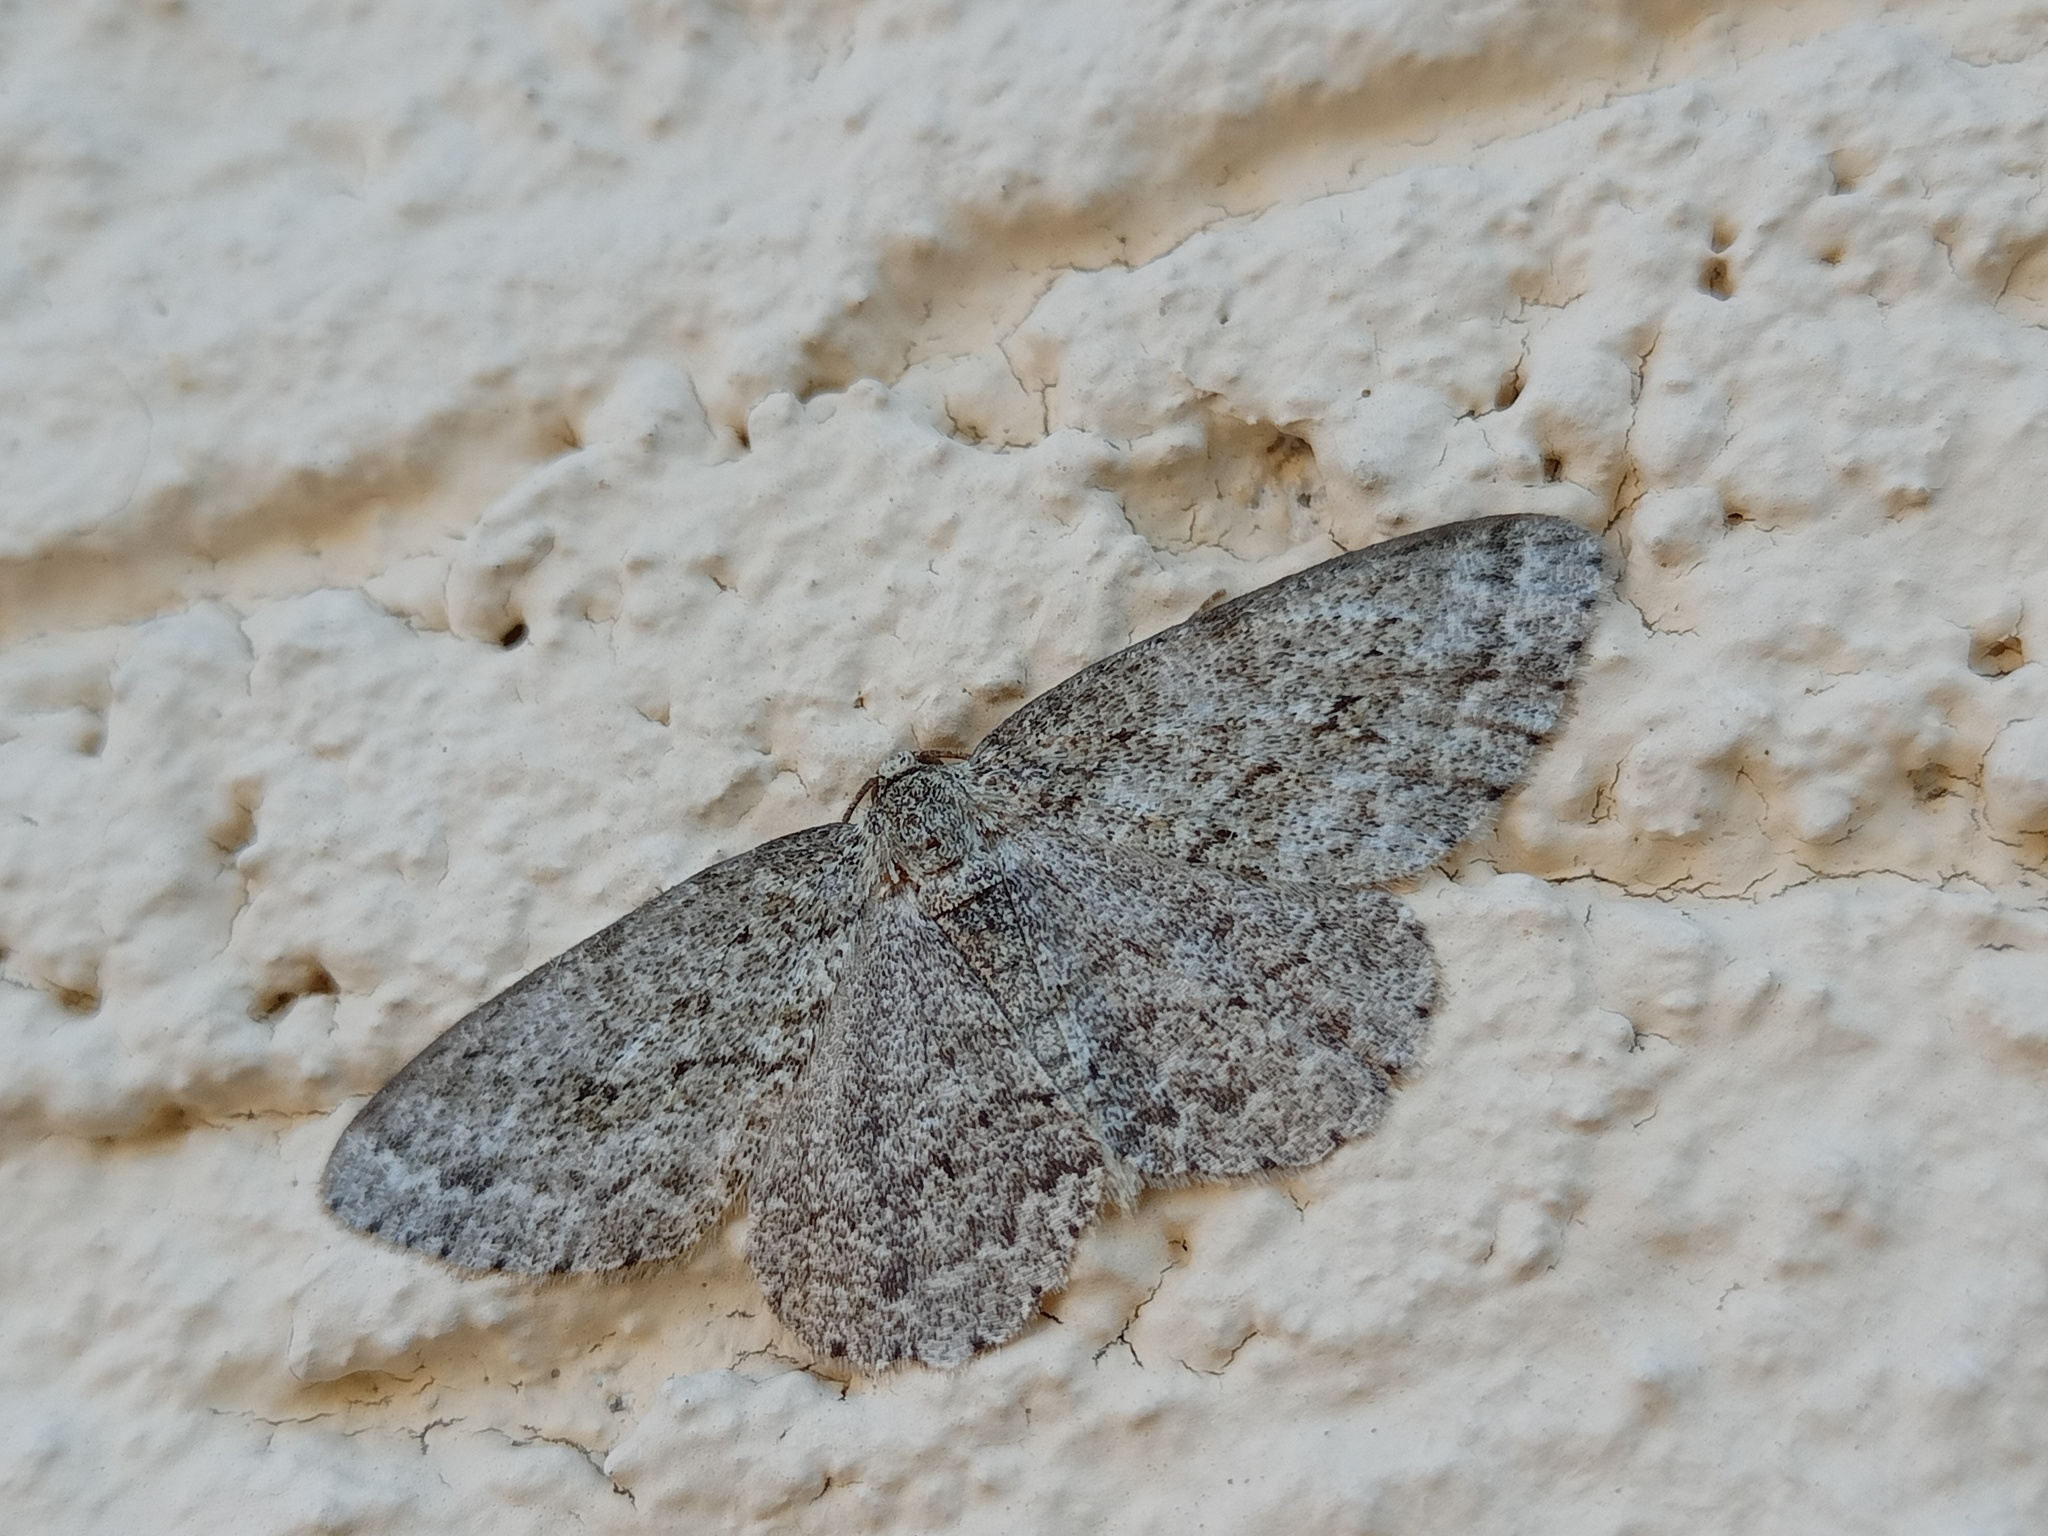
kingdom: Animalia
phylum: Arthropoda
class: Insecta
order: Lepidoptera
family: Geometridae
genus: Ectropis
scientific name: Ectropis crepuscularia
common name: Engrailed
